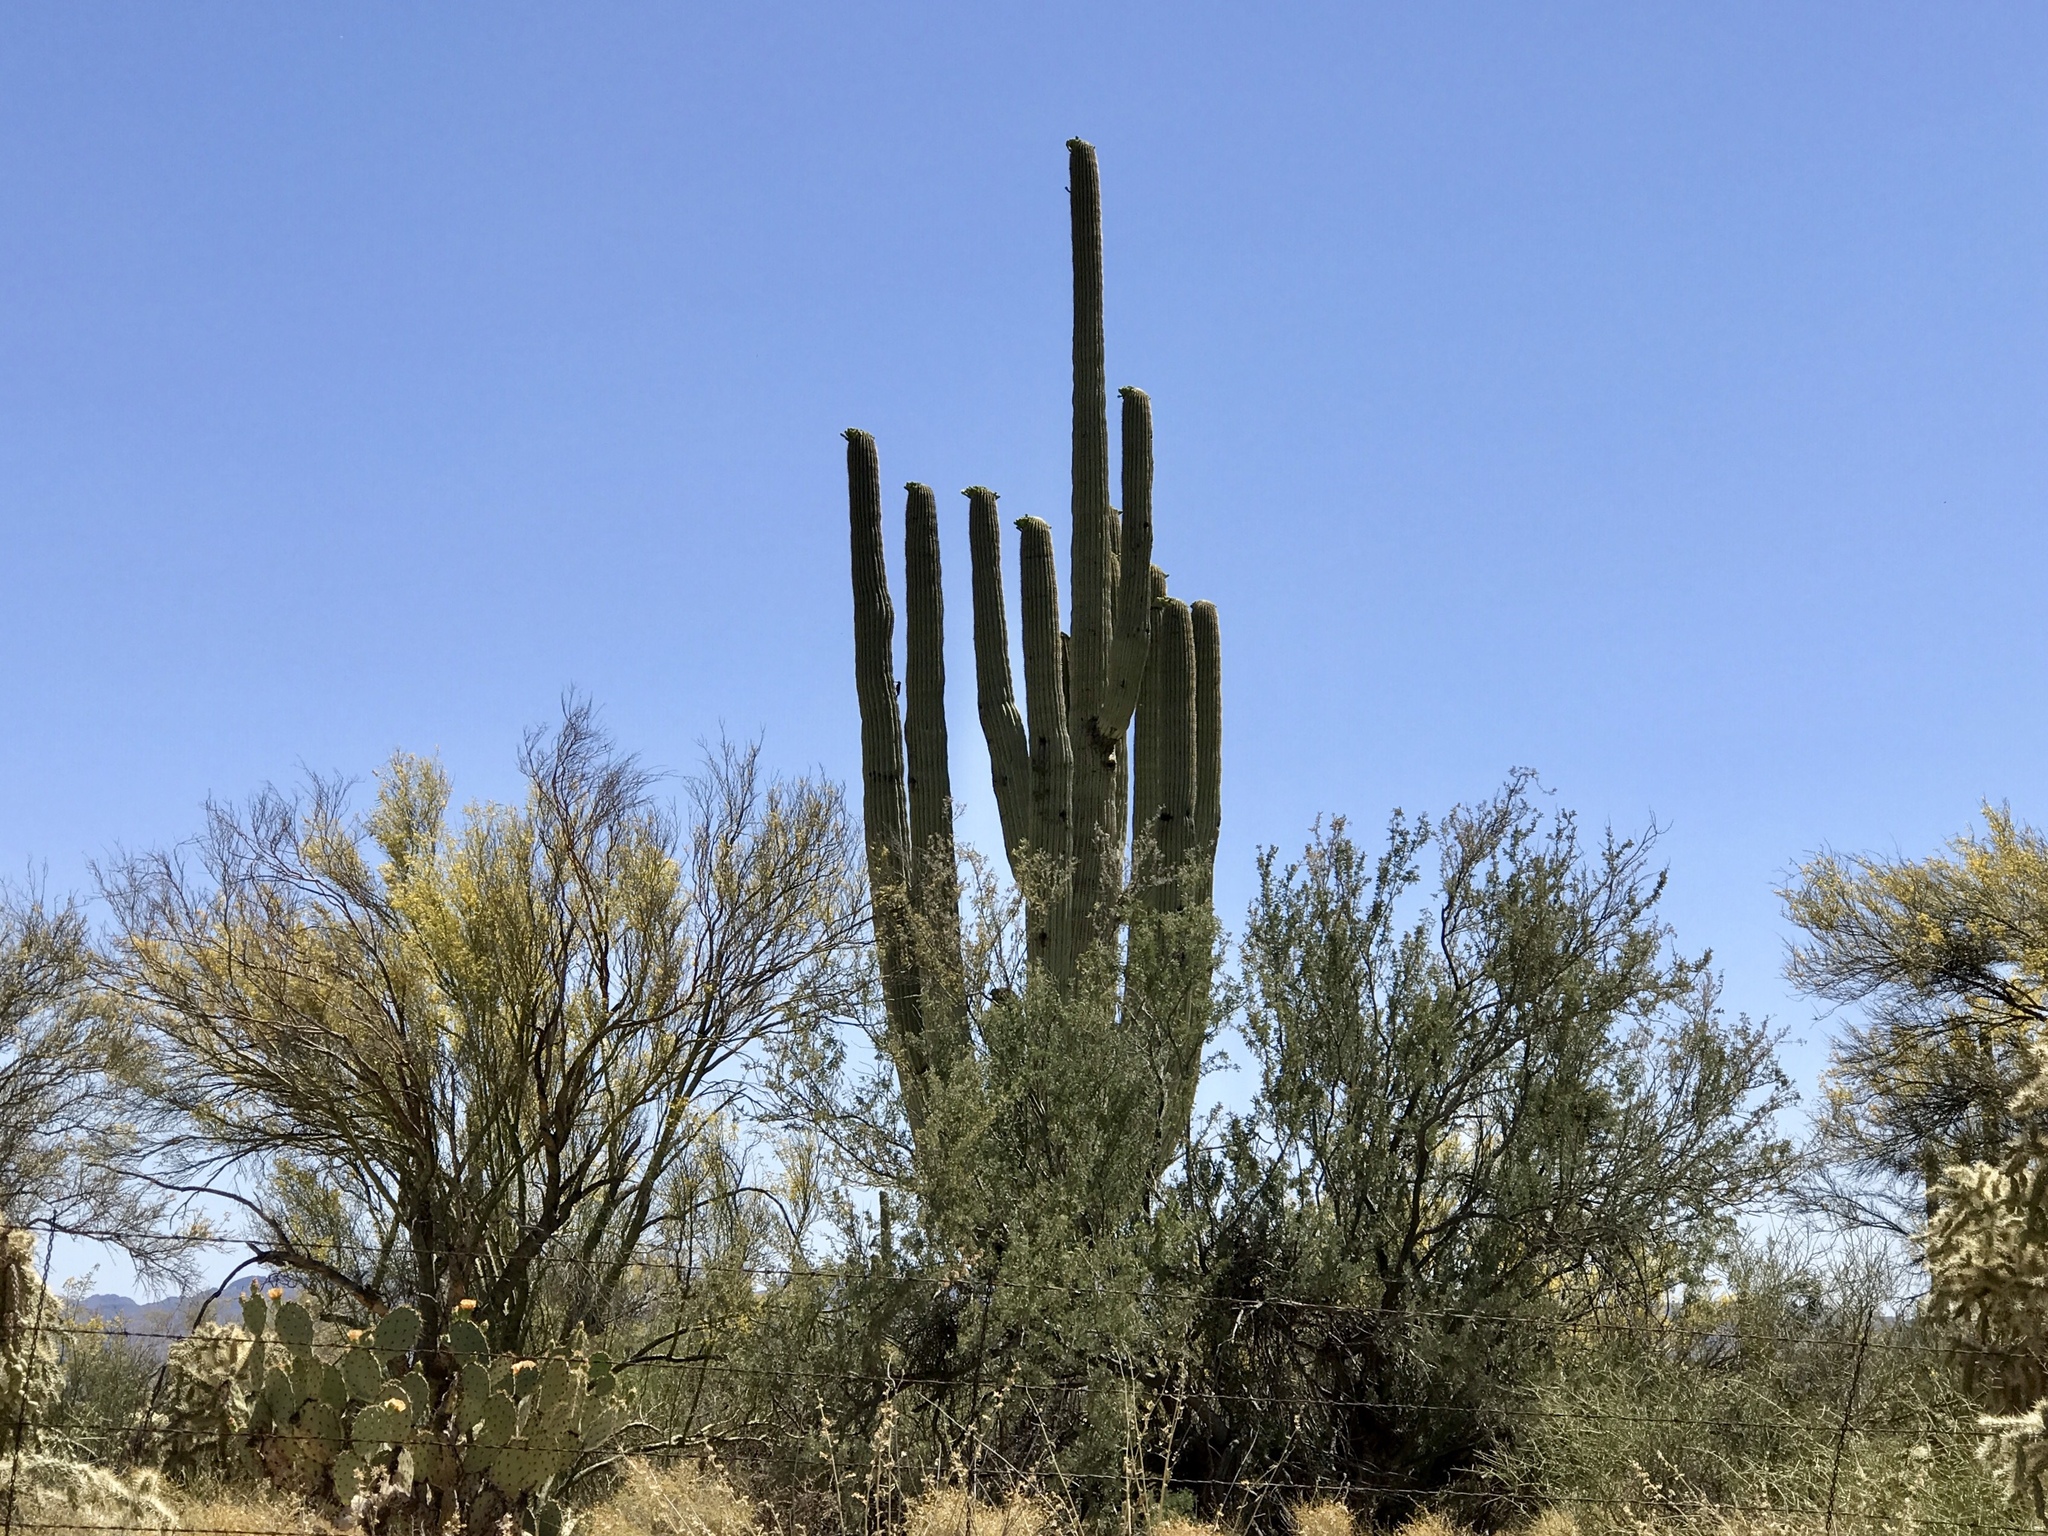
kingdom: Plantae
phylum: Tracheophyta
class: Magnoliopsida
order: Caryophyllales
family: Cactaceae
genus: Carnegiea
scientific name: Carnegiea gigantea
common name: Saguaro
